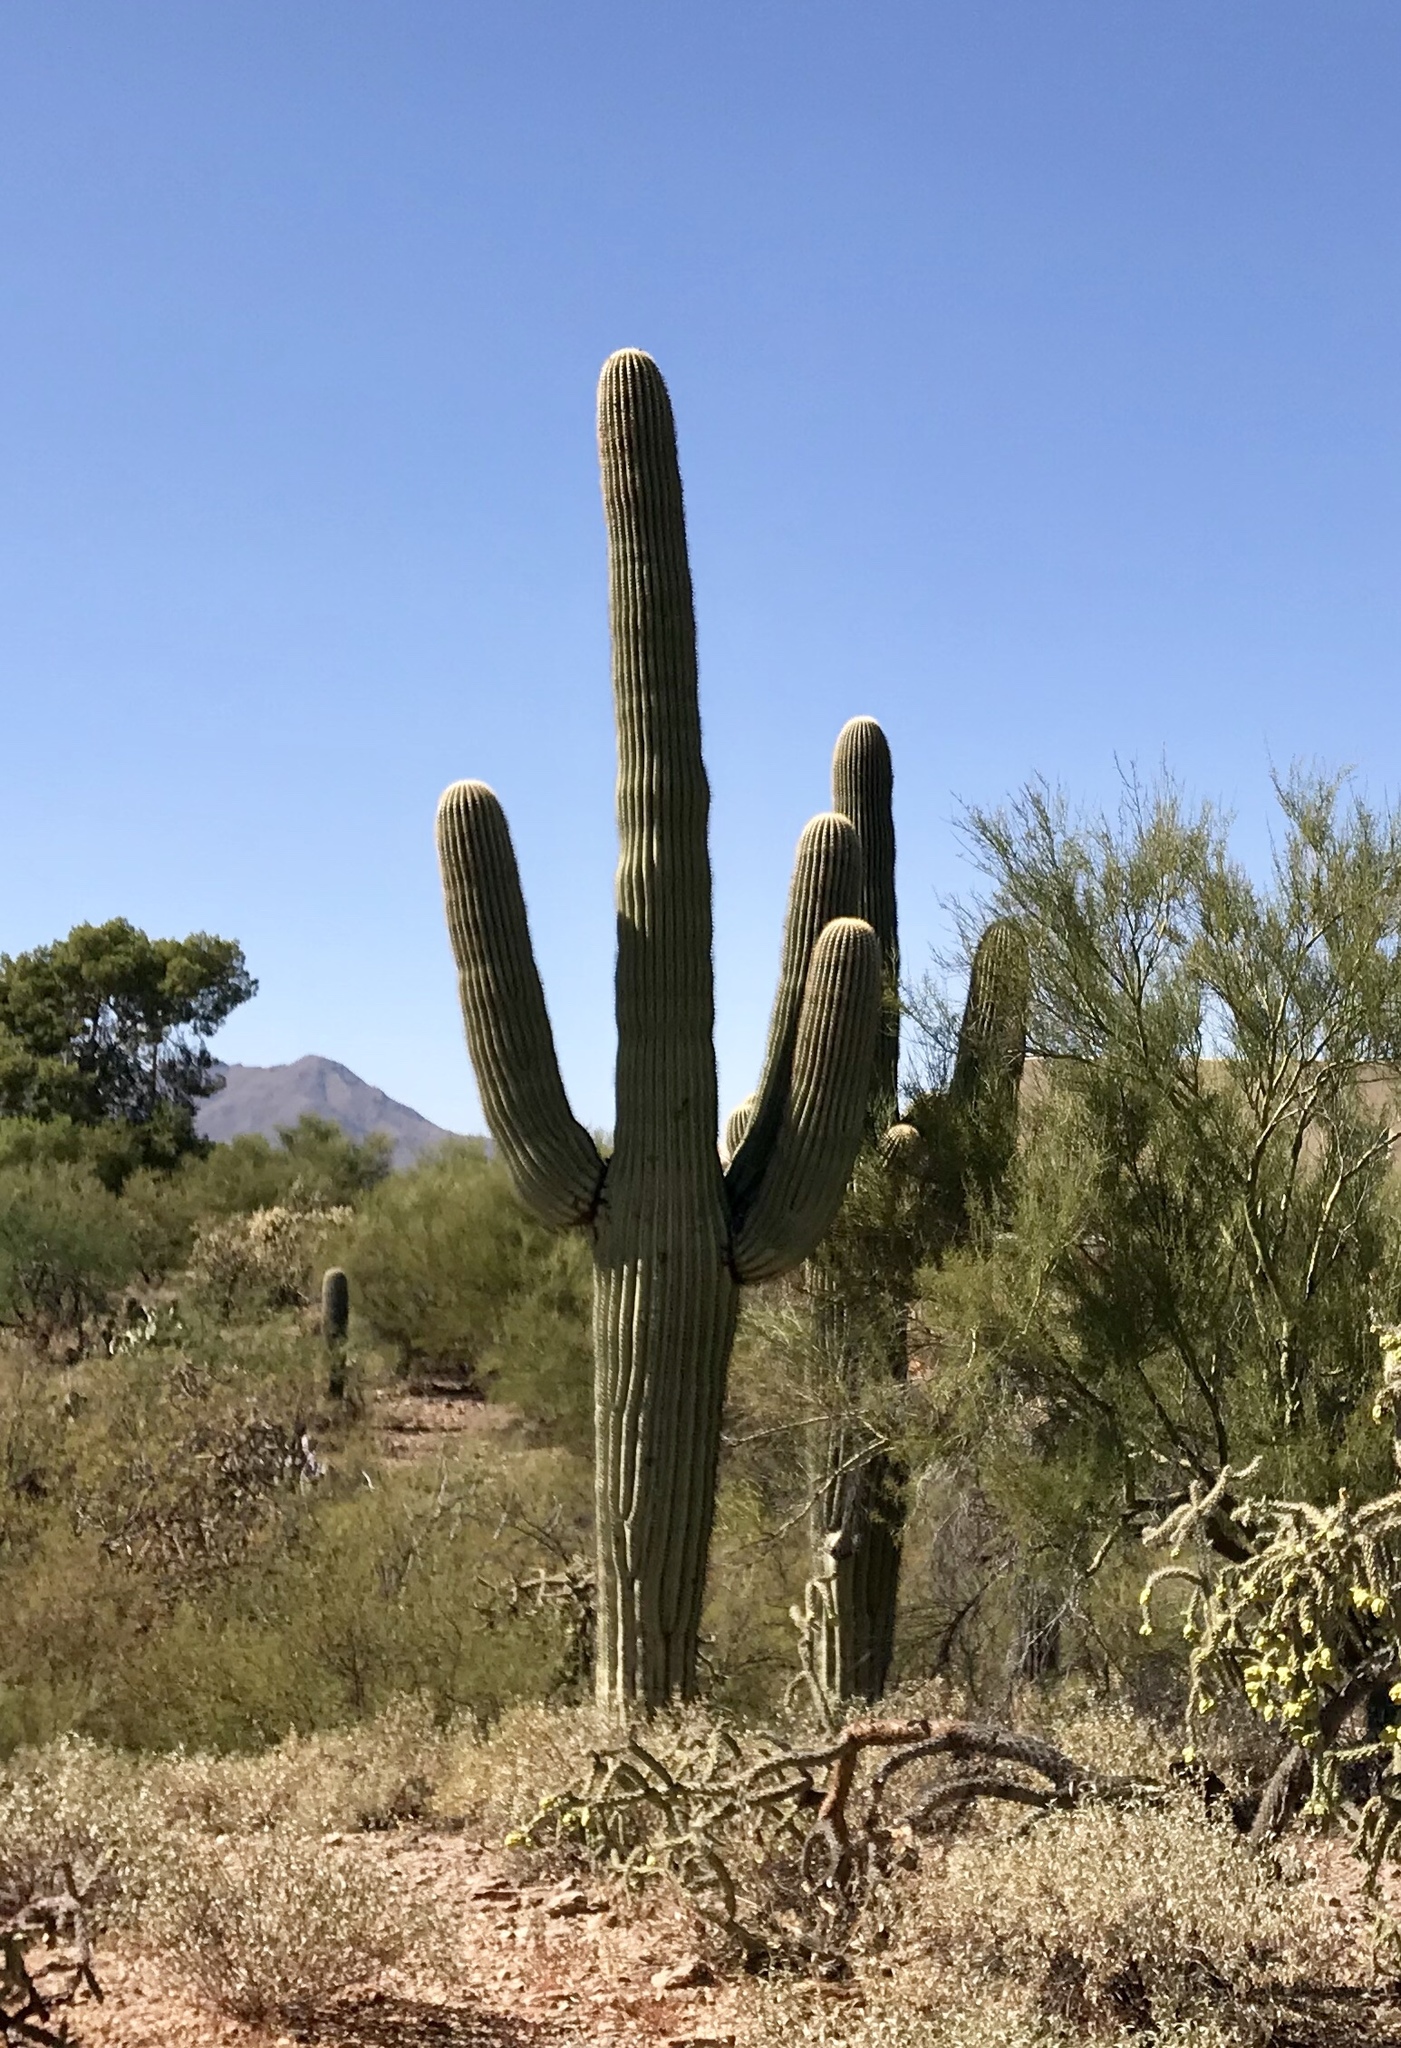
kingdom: Plantae
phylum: Tracheophyta
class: Magnoliopsida
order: Caryophyllales
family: Cactaceae
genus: Carnegiea
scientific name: Carnegiea gigantea
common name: Saguaro
